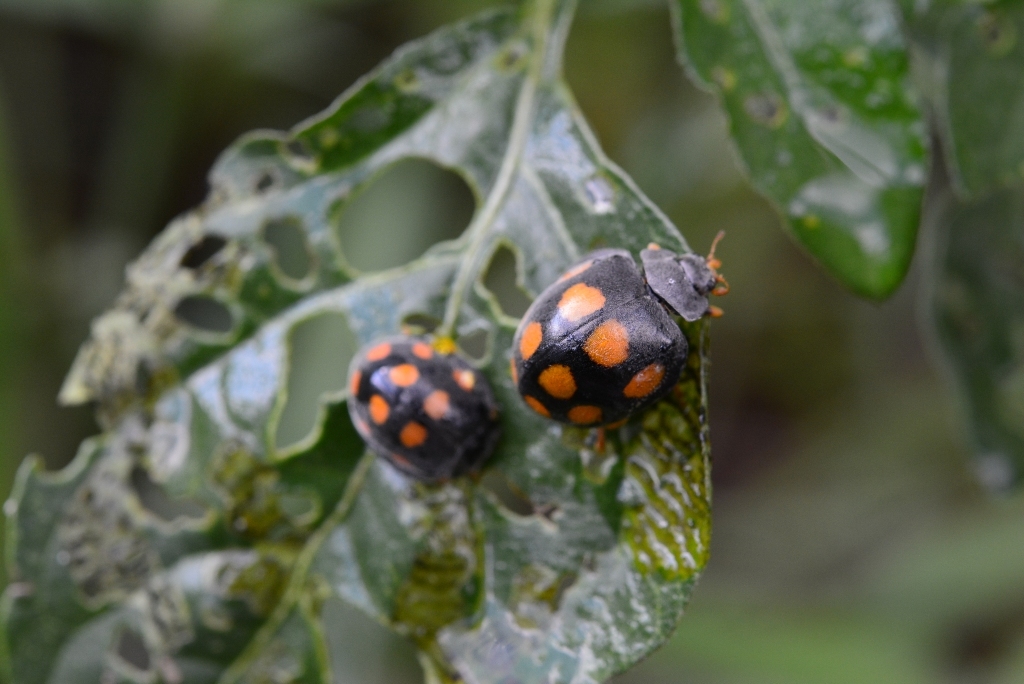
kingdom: Animalia
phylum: Arthropoda
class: Insecta
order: Coleoptera
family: Coccinellidae
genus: Epilachna
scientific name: Epilachna
